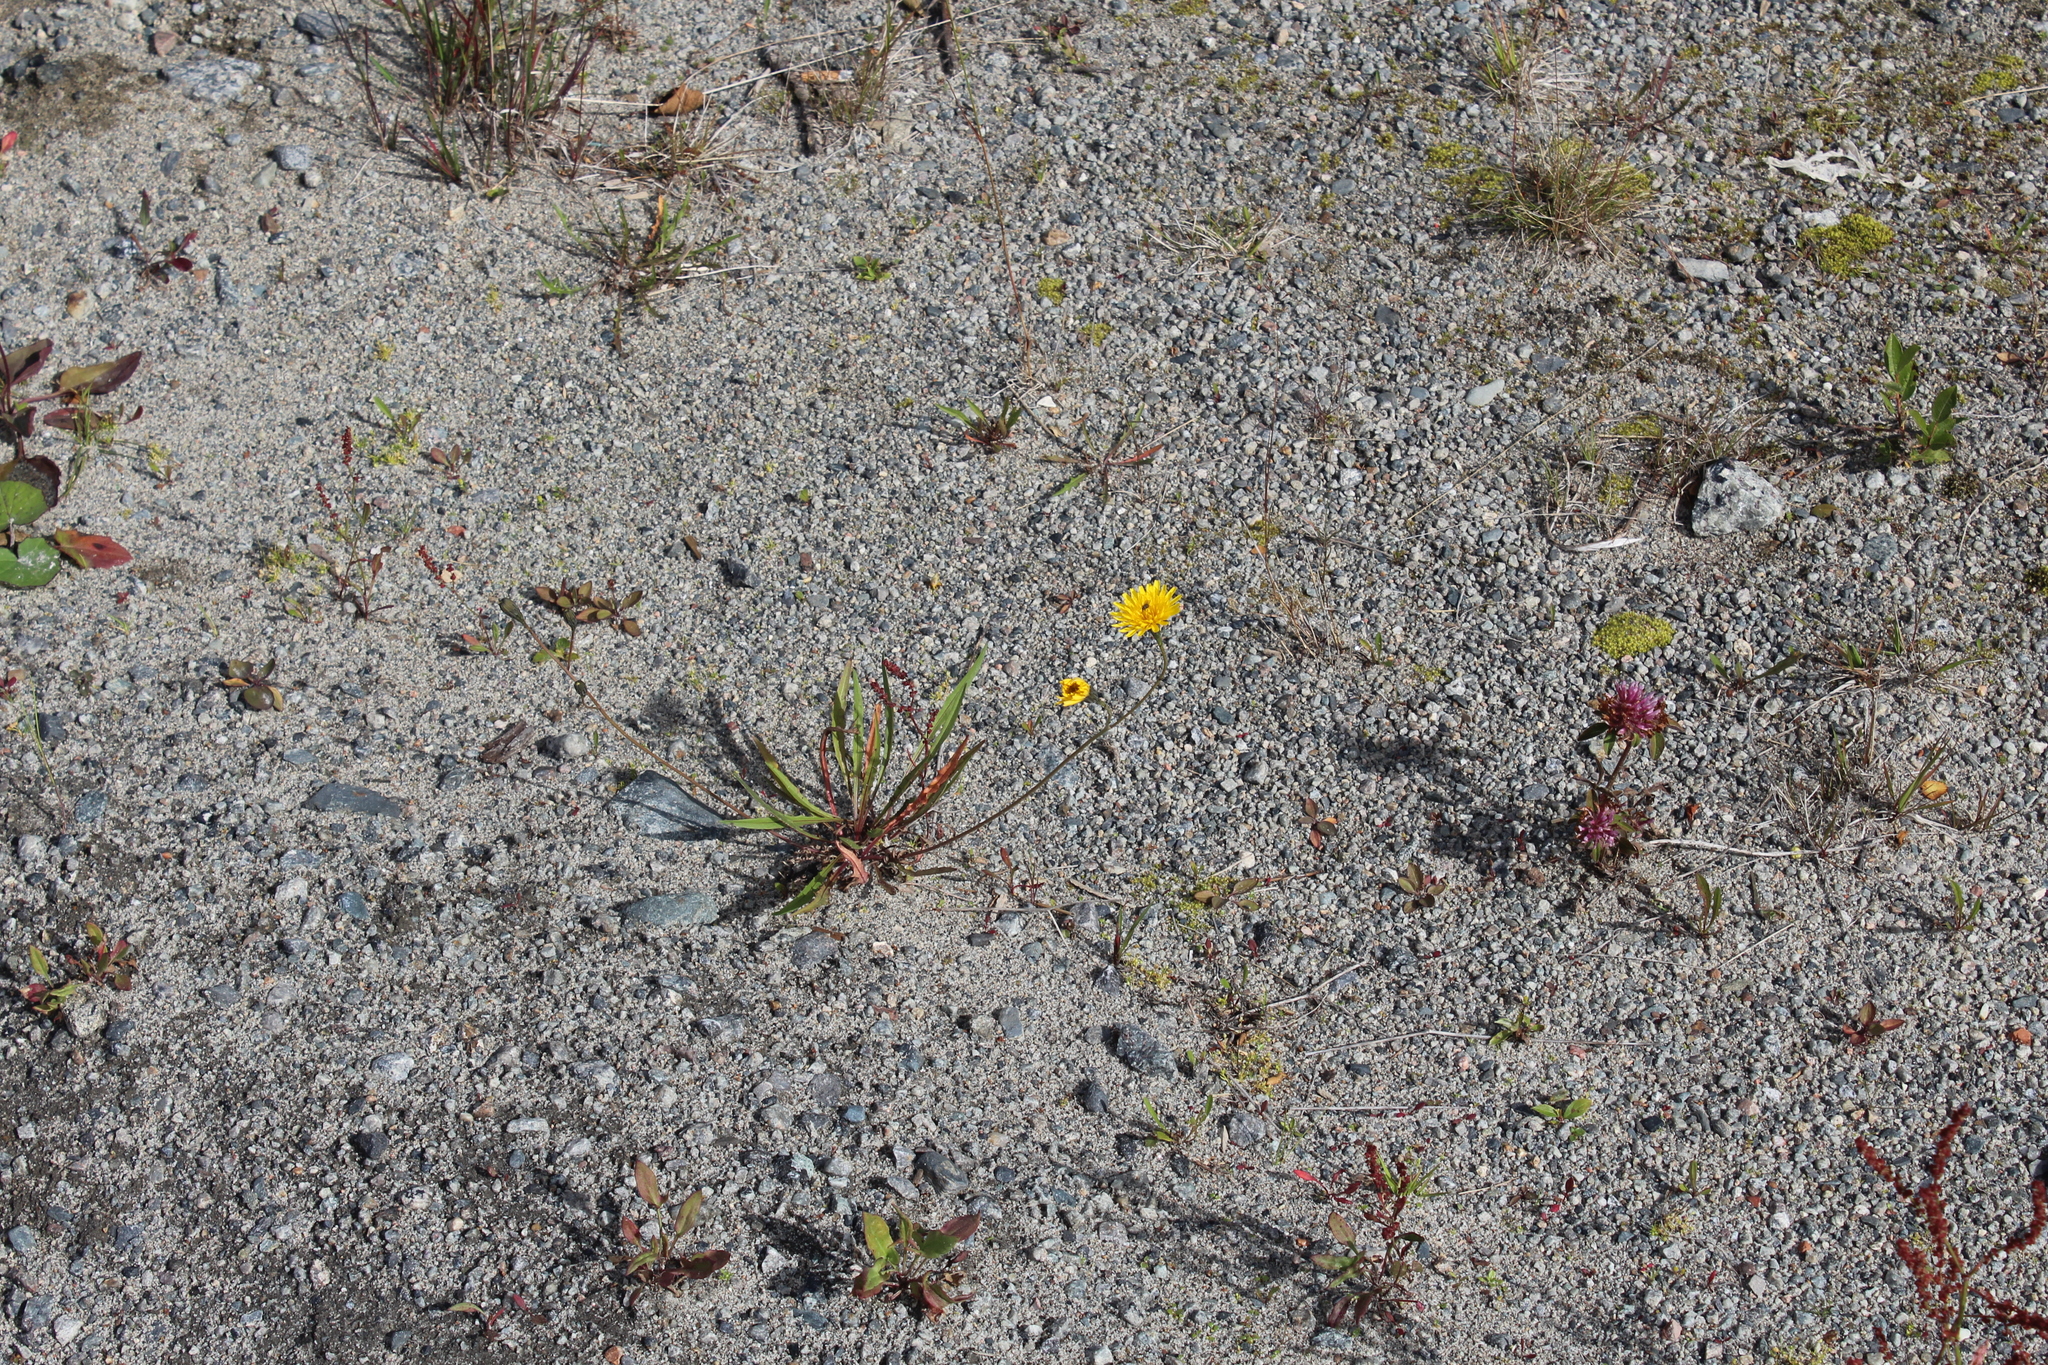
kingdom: Plantae
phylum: Tracheophyta
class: Magnoliopsida
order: Asterales
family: Asteraceae
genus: Scorzoneroides
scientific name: Scorzoneroides autumnalis
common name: Autumn hawkbit
